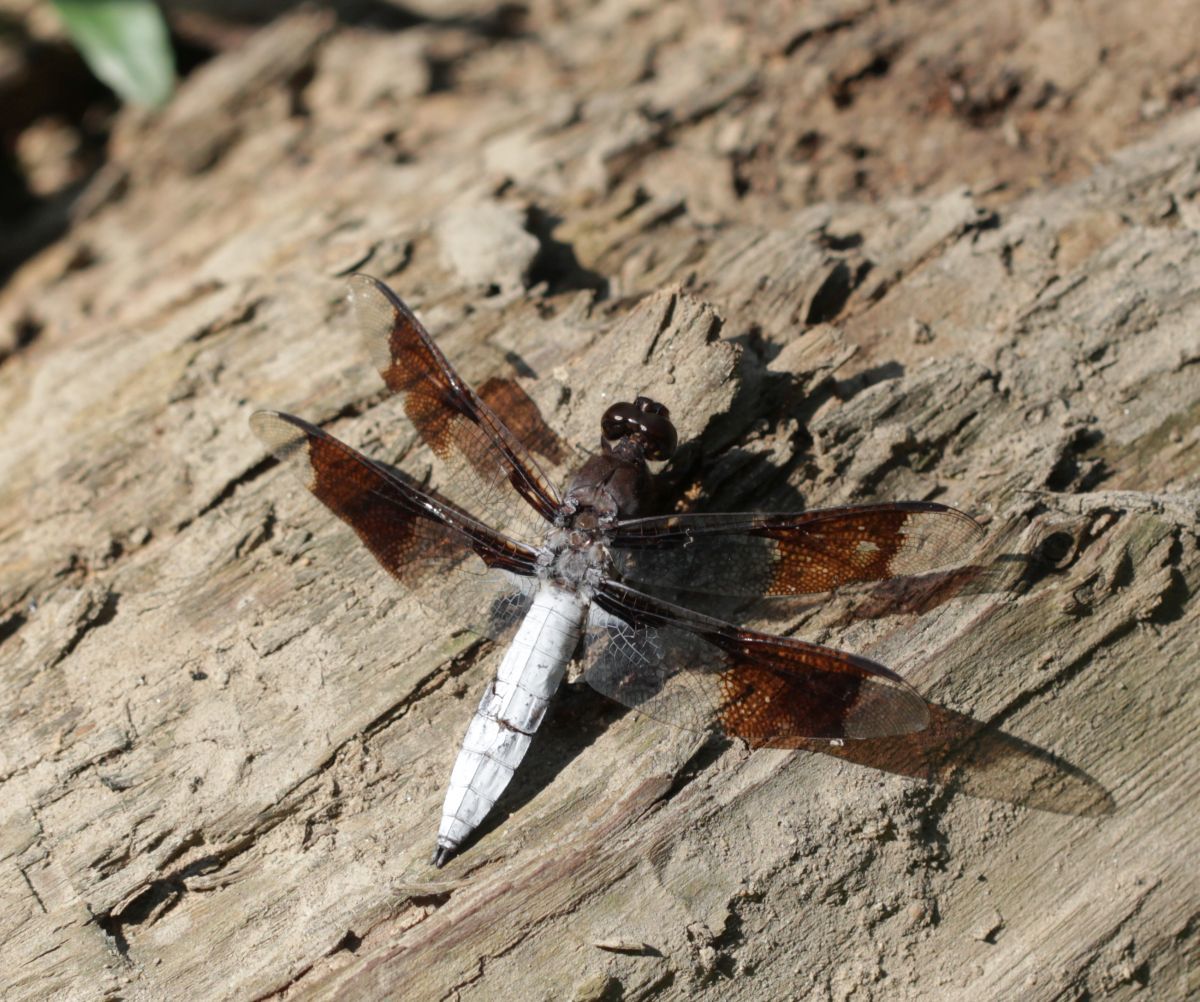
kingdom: Animalia
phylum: Arthropoda
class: Insecta
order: Odonata
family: Libellulidae
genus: Plathemis
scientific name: Plathemis lydia
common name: Common whitetail
